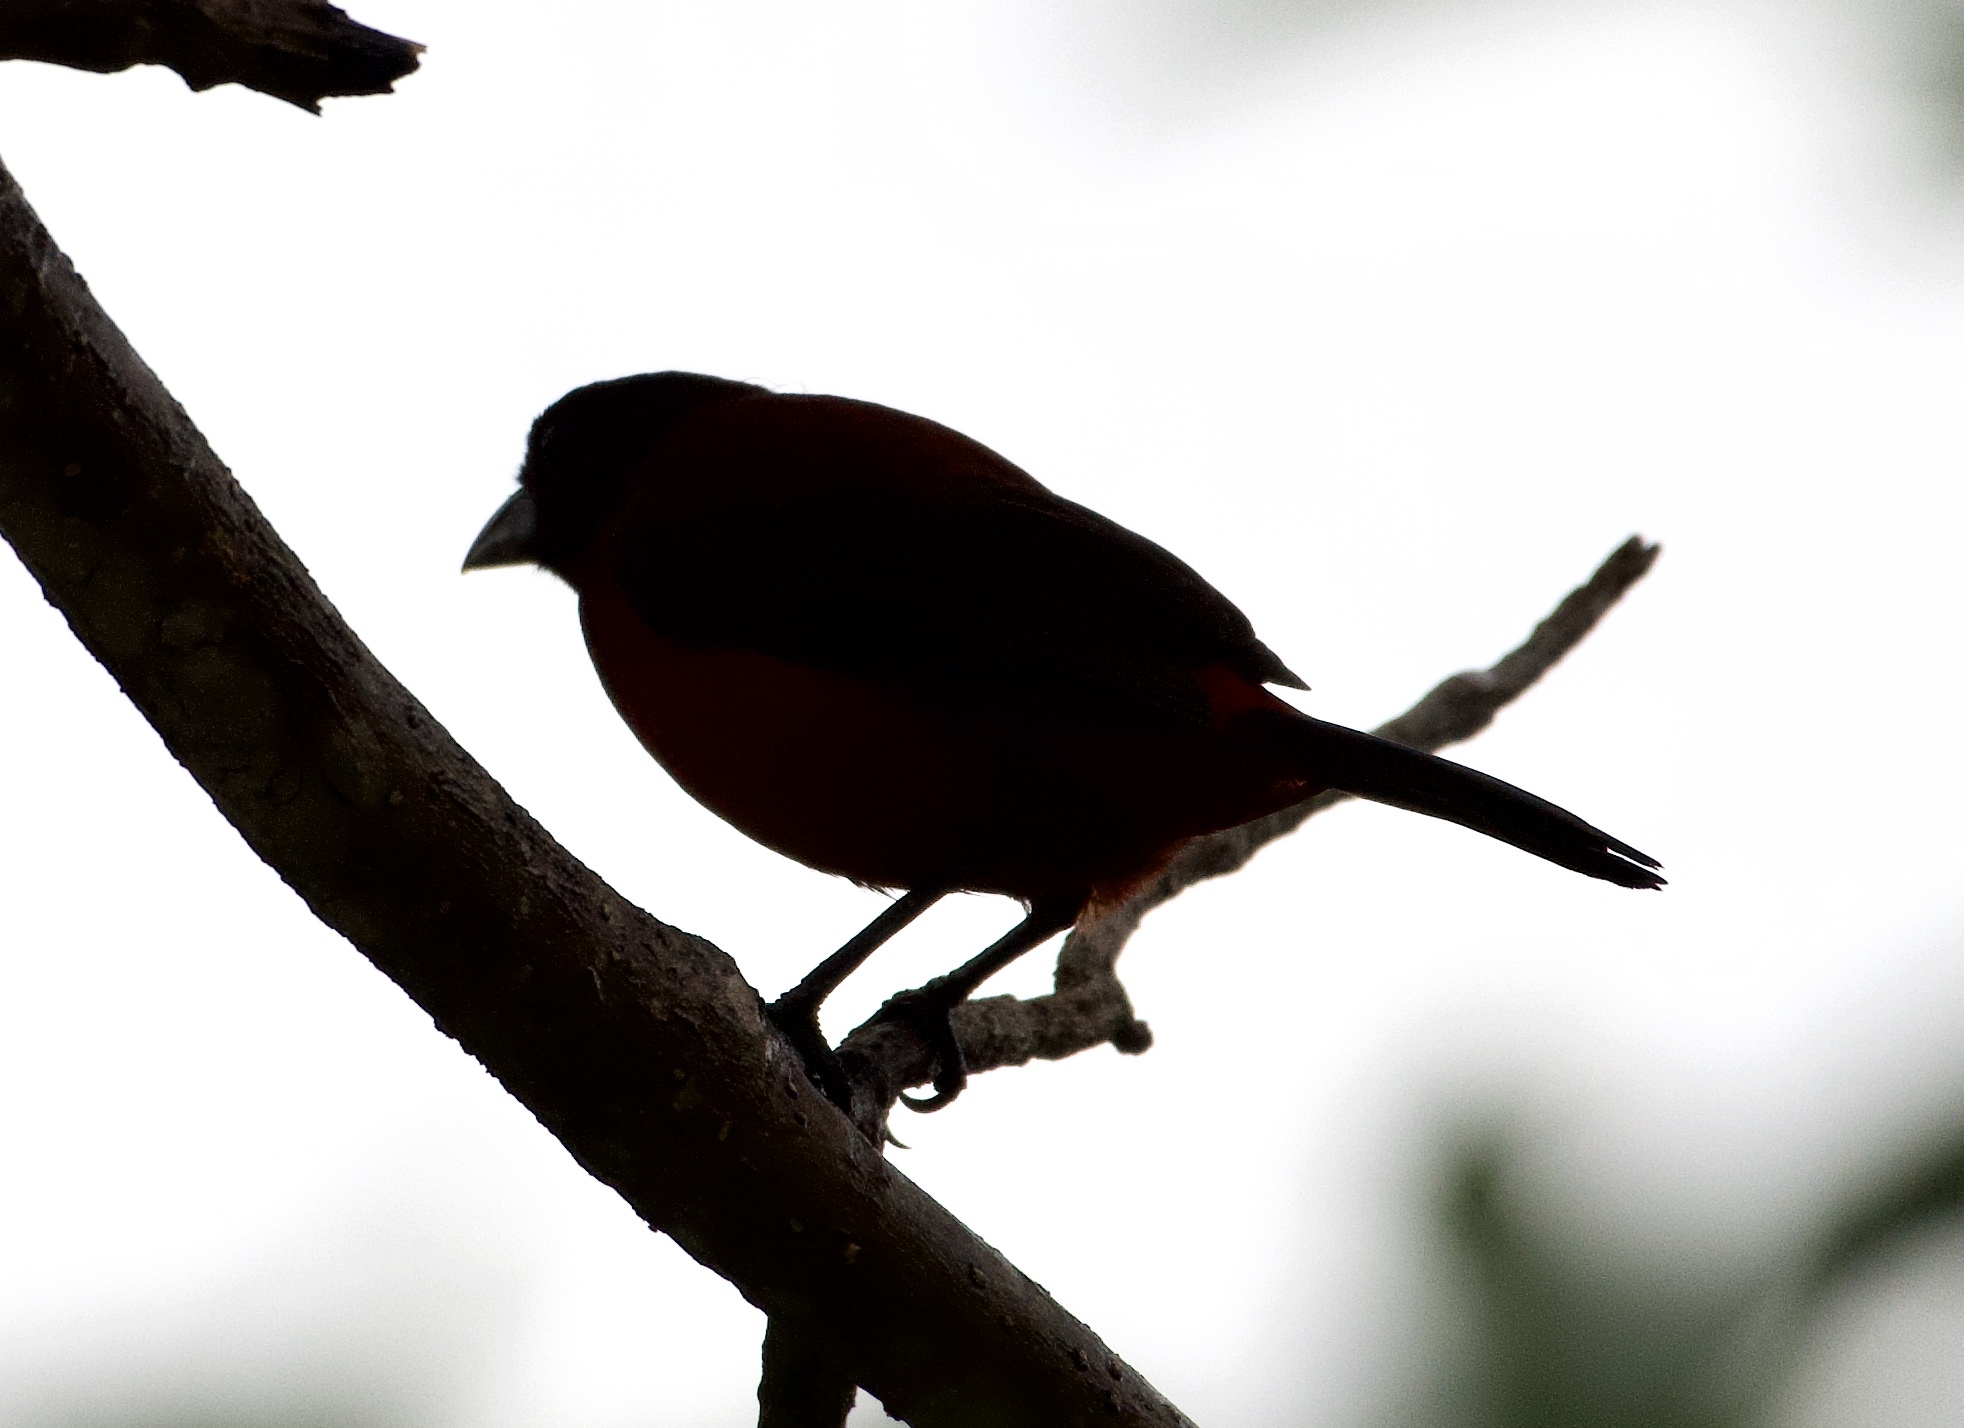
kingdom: Animalia
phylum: Chordata
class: Aves
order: Passeriformes
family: Thraupidae
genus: Ramphocelus
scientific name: Ramphocelus dimidiatus
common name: Crimson-backed tanager
